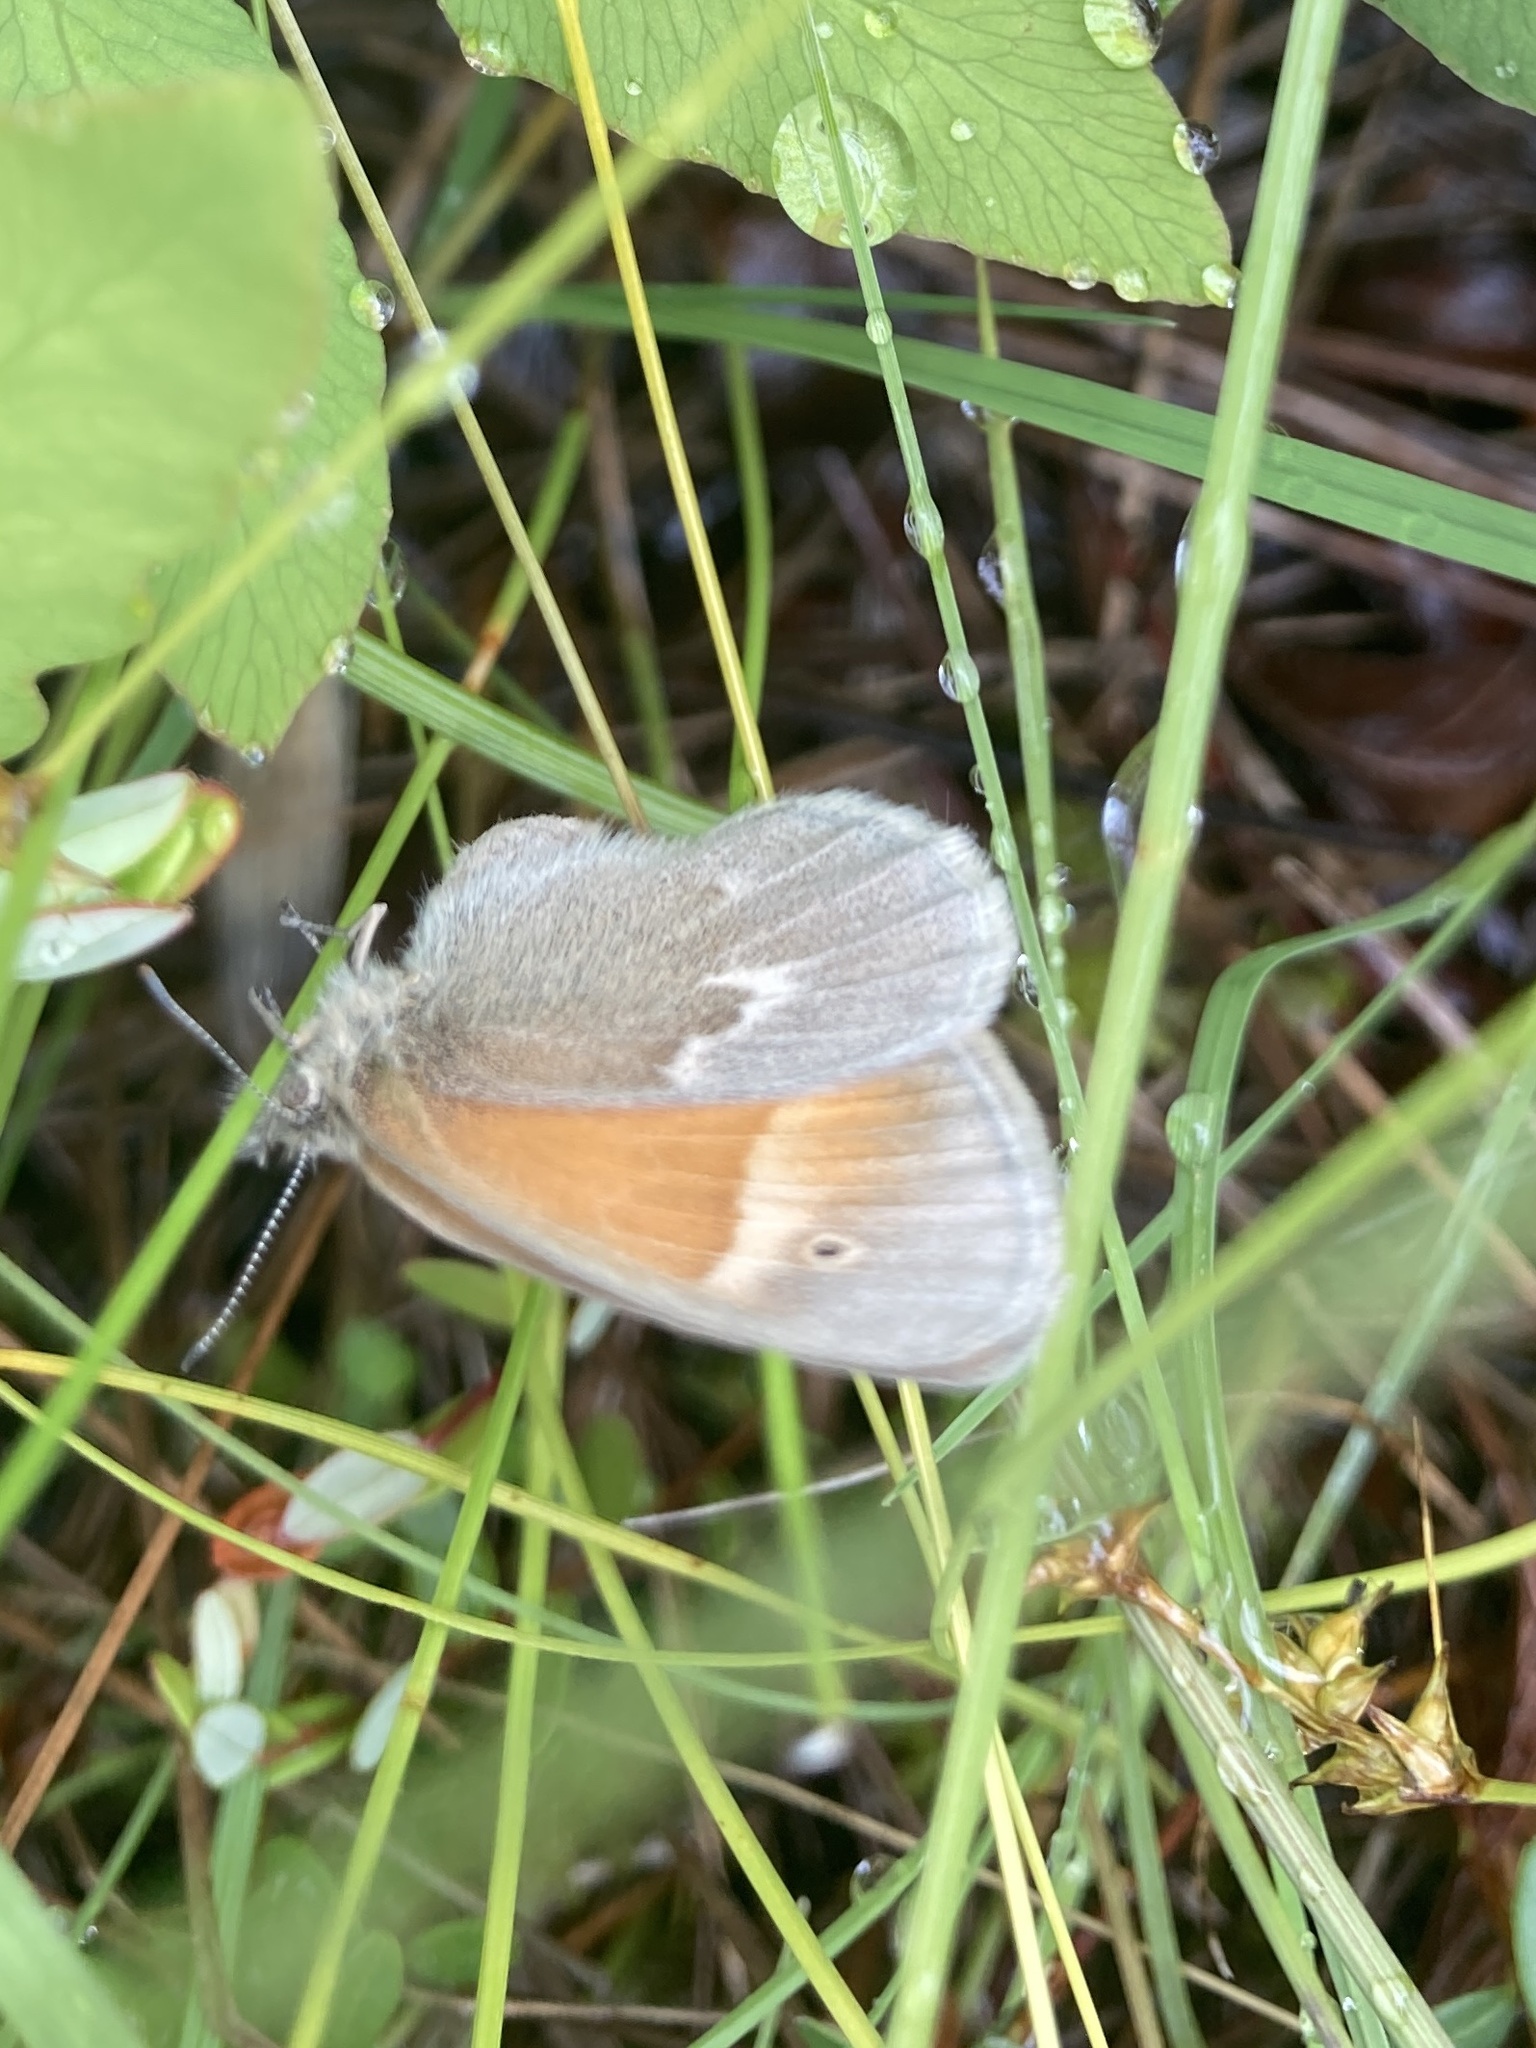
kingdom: Animalia
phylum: Arthropoda
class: Insecta
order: Lepidoptera
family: Nymphalidae
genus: Coenonympha
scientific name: Coenonympha california
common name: Common ringlet
